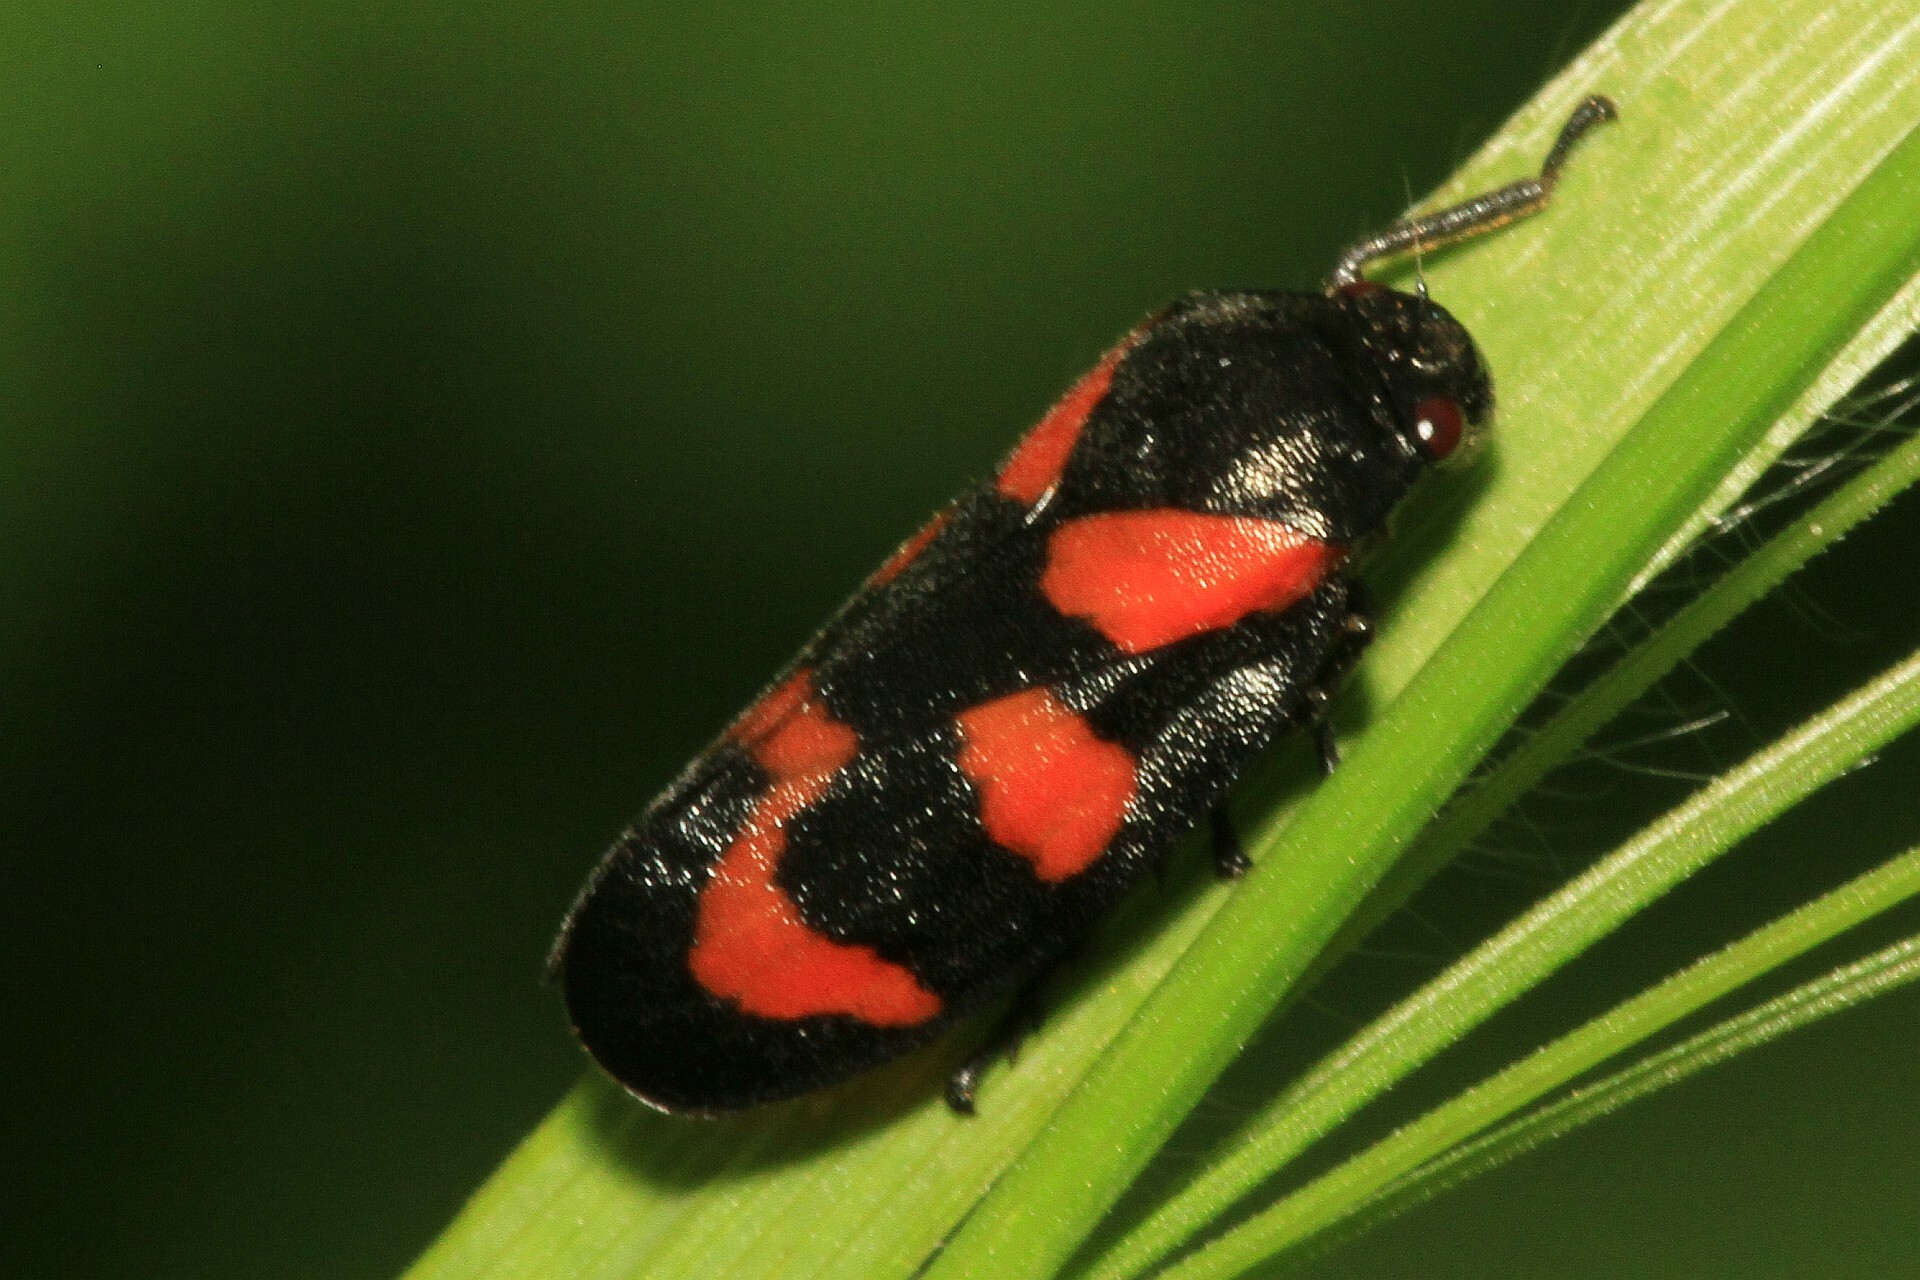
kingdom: Animalia
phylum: Arthropoda
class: Insecta
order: Hemiptera
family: Cercopidae
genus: Cercopis
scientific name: Cercopis vulnerata
